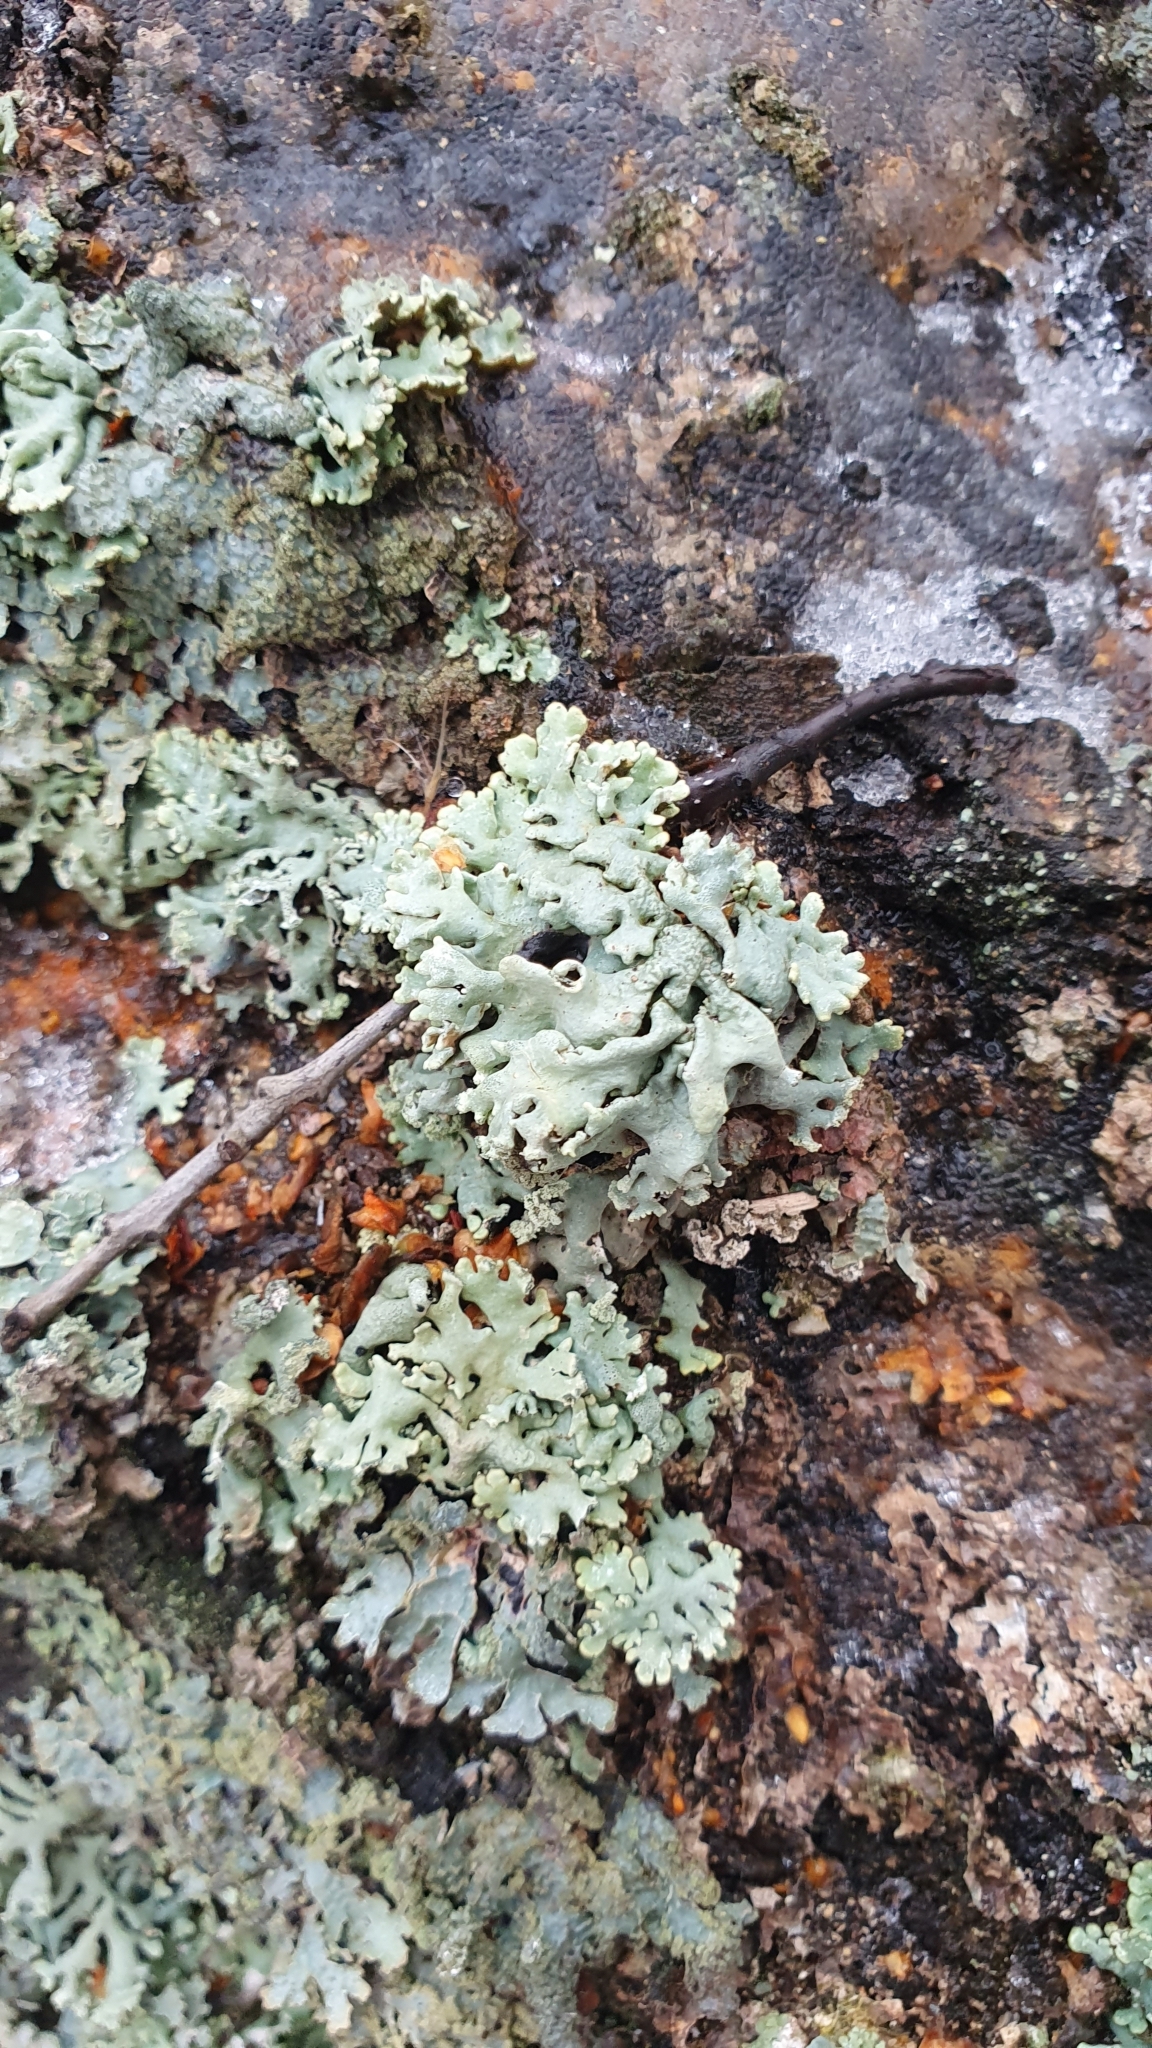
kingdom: Fungi
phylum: Ascomycota
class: Lecanoromycetes
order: Lecanorales
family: Parmeliaceae
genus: Hypogymnia
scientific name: Hypogymnia physodes
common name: Dark crottle
